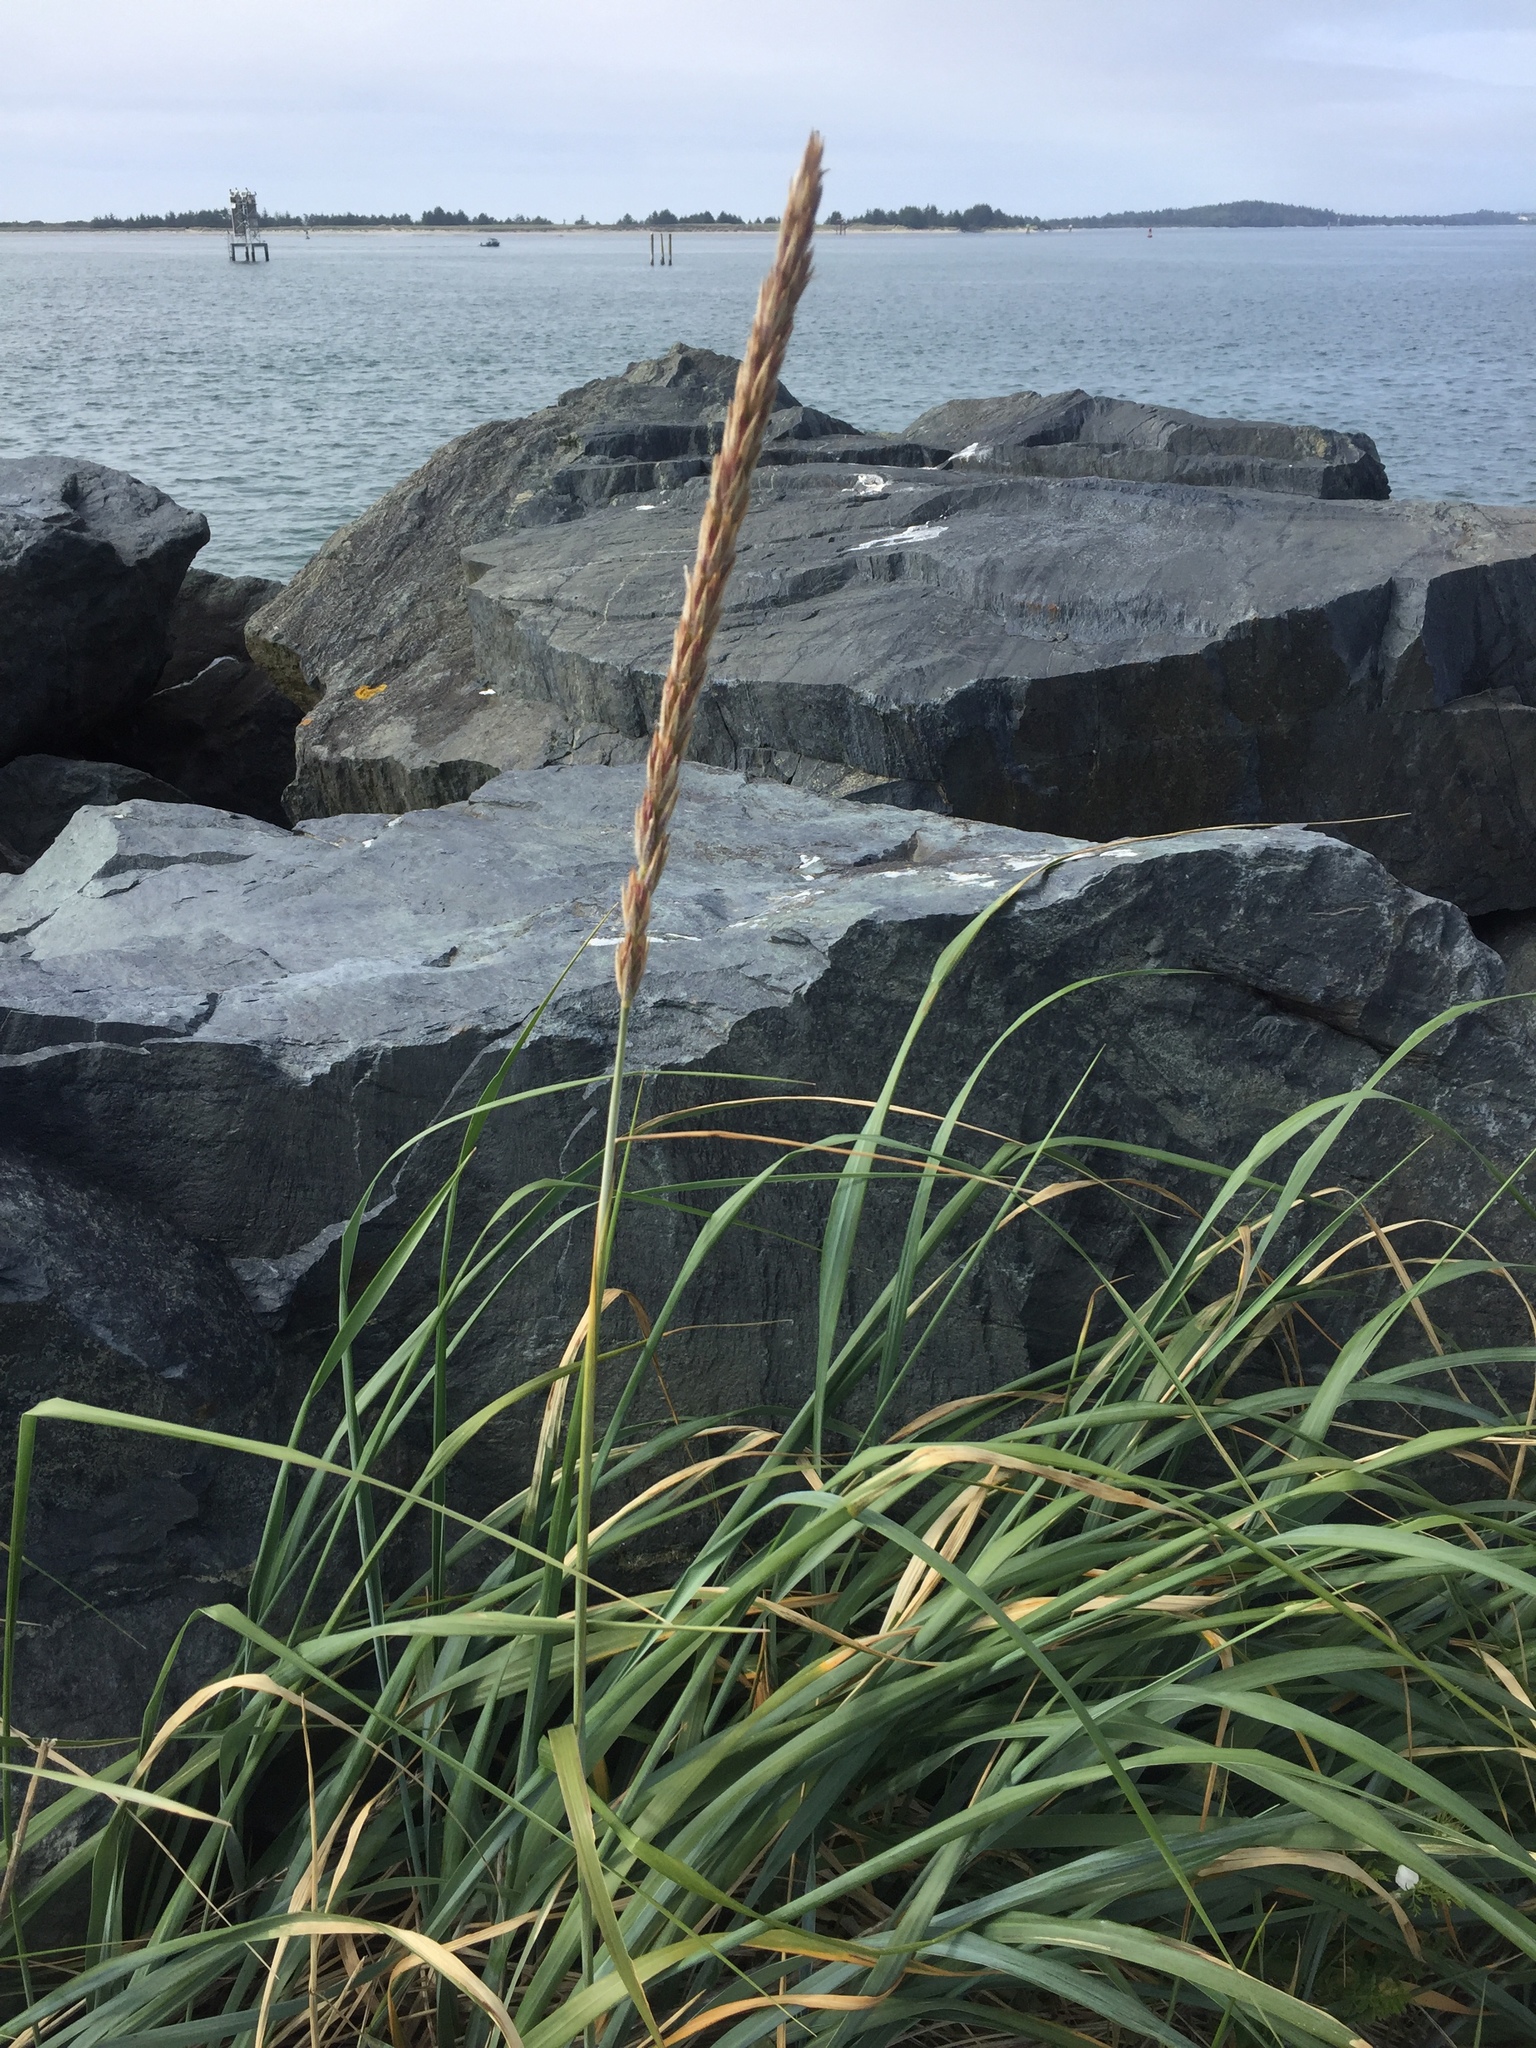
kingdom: Plantae
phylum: Tracheophyta
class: Liliopsida
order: Poales
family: Poaceae
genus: Leymus
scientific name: Leymus mollis
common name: American dune grass
